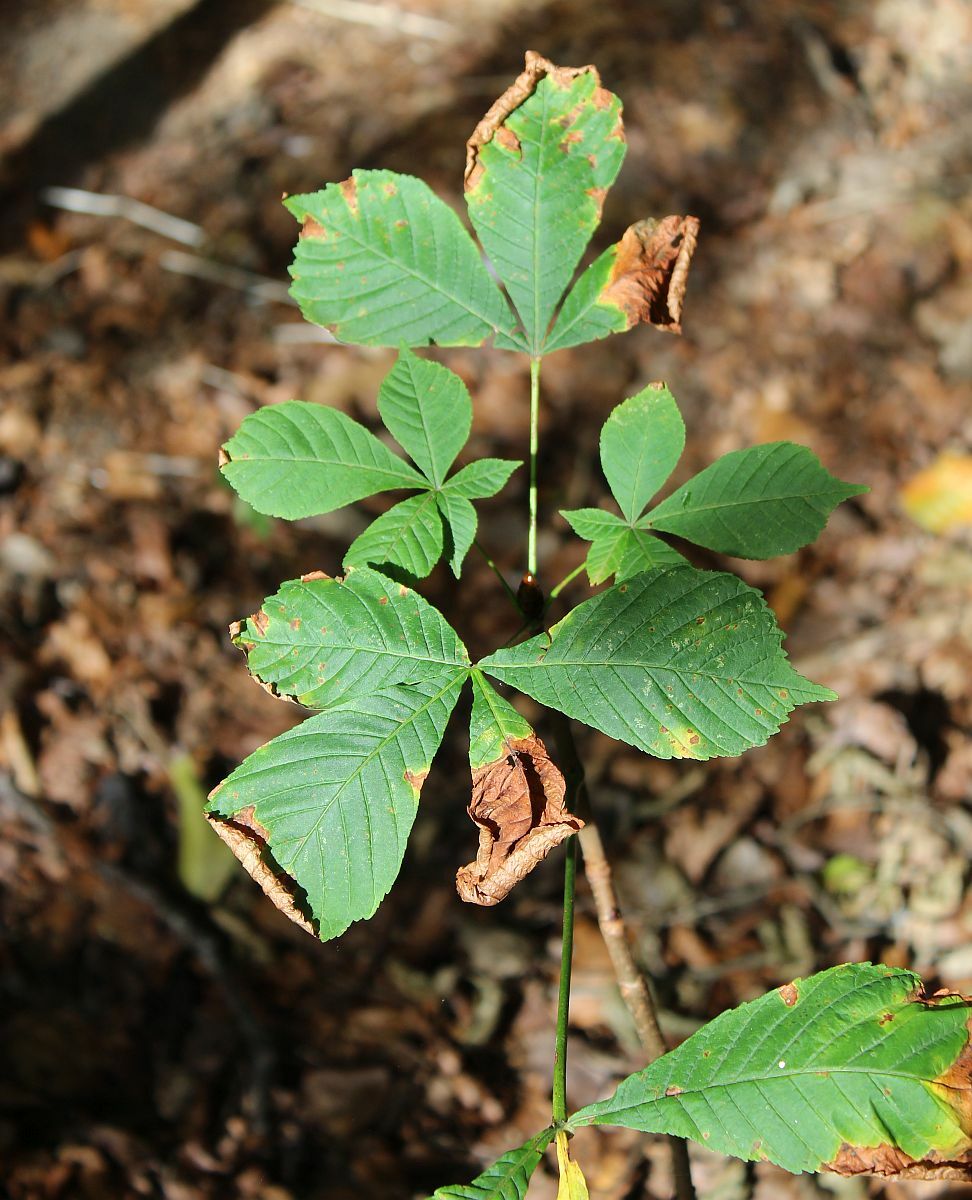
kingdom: Plantae
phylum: Tracheophyta
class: Magnoliopsida
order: Sapindales
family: Sapindaceae
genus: Aesculus
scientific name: Aesculus hippocastanum
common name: Horse-chestnut
